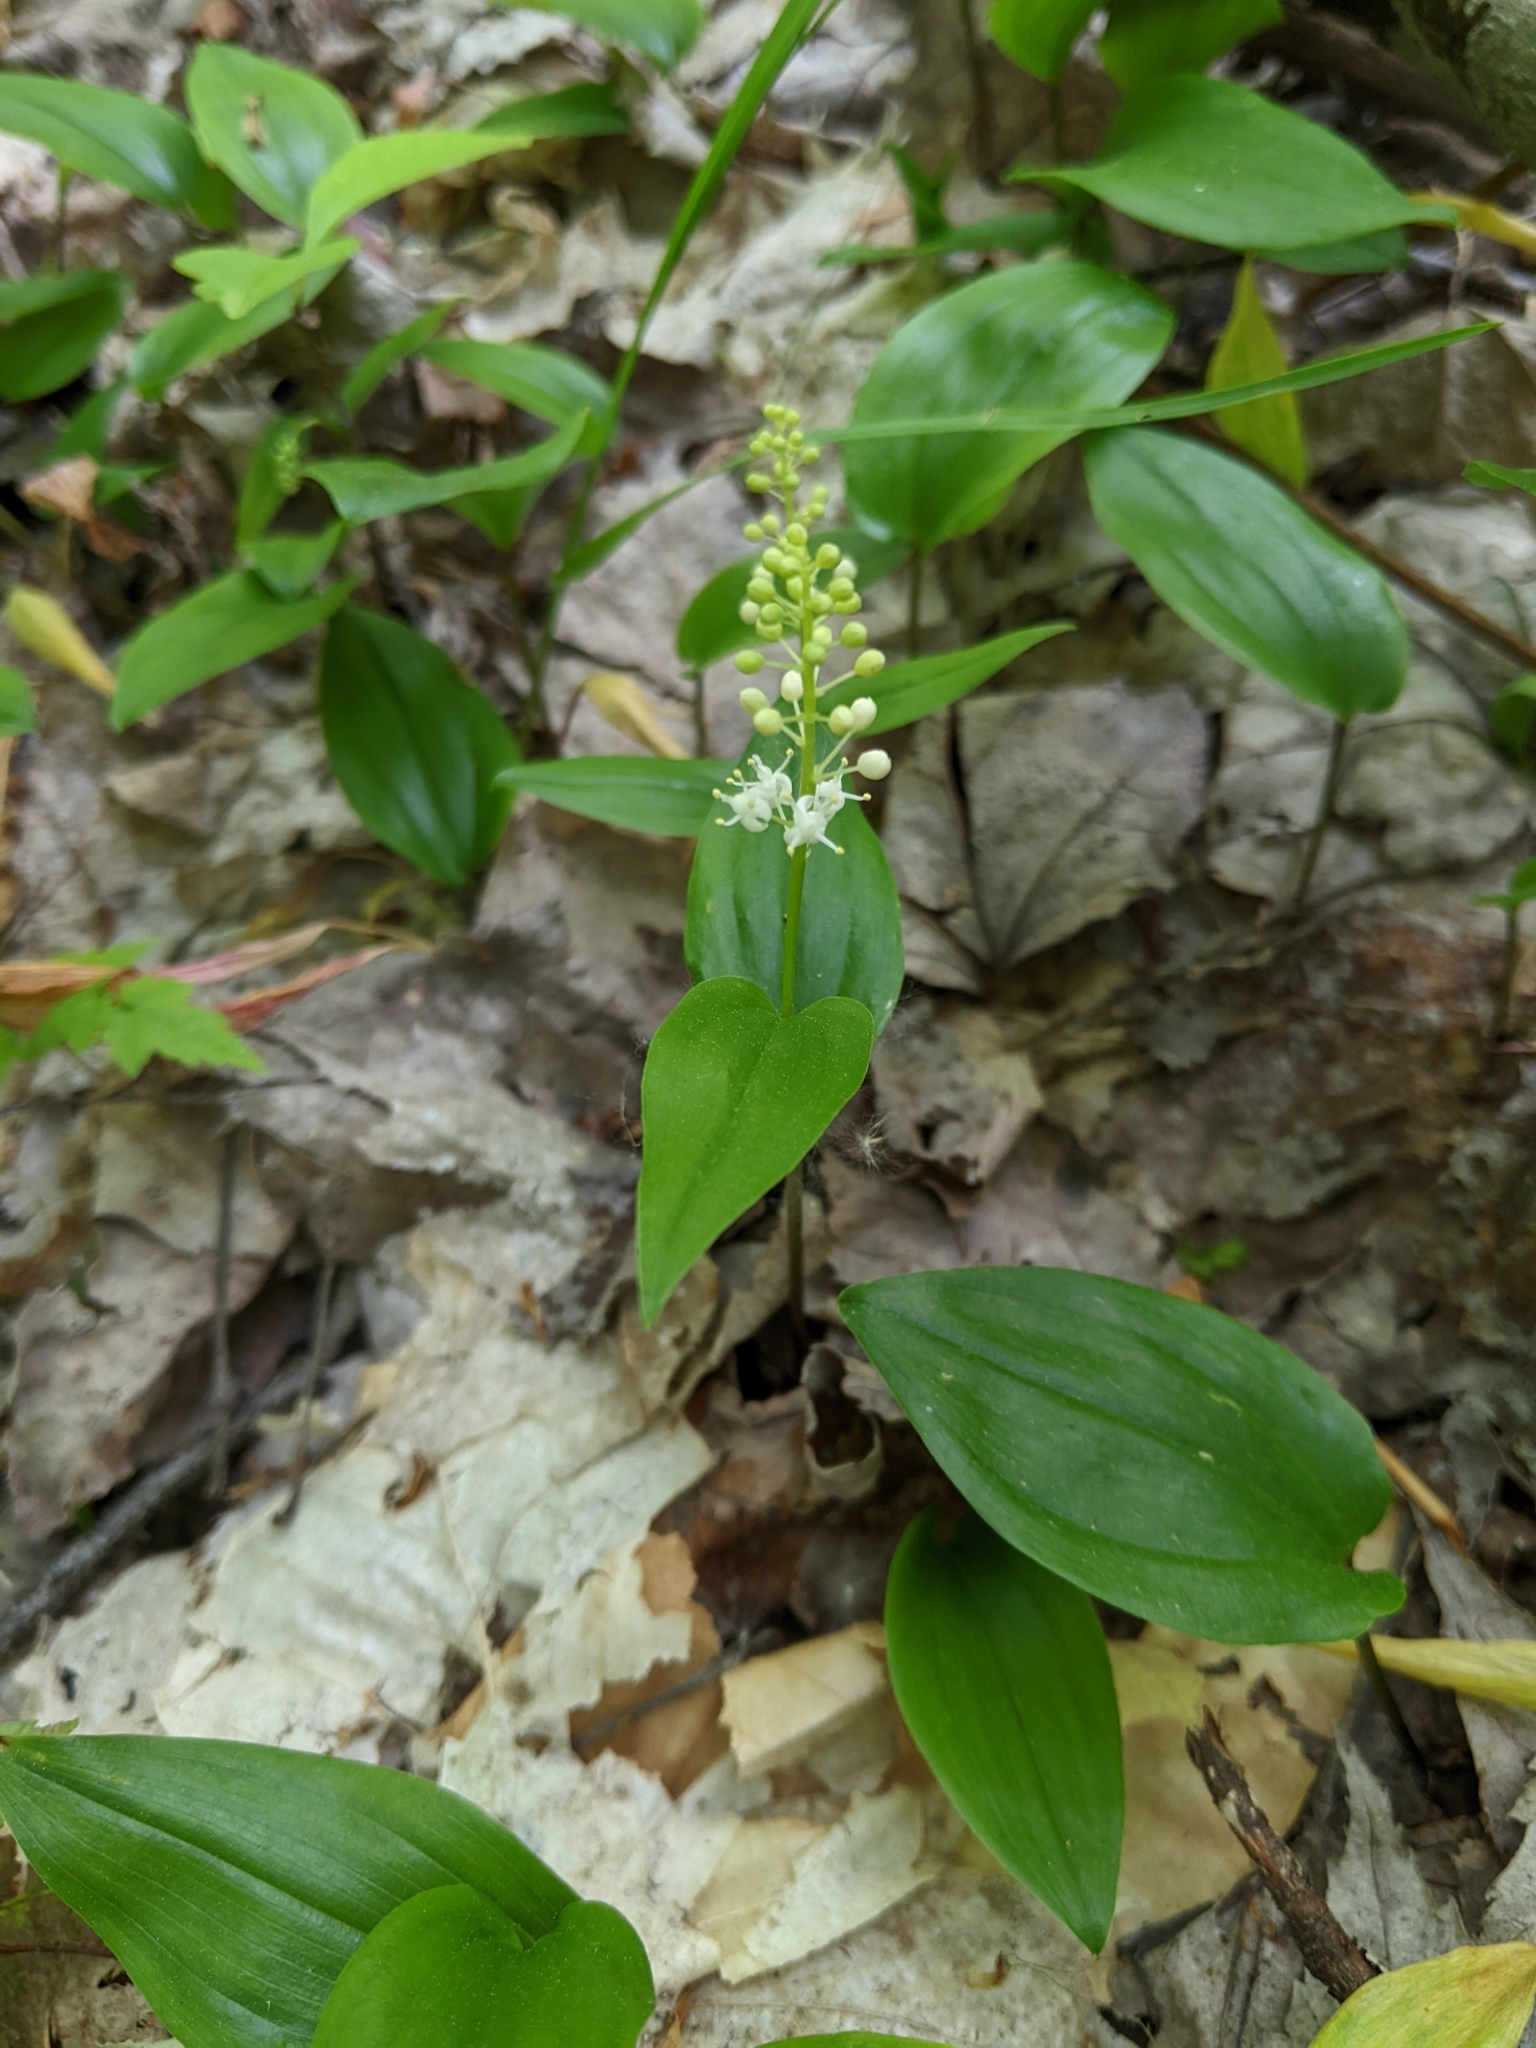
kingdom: Plantae
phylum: Tracheophyta
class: Liliopsida
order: Asparagales
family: Asparagaceae
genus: Maianthemum
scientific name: Maianthemum canadense
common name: False lily-of-the-valley
